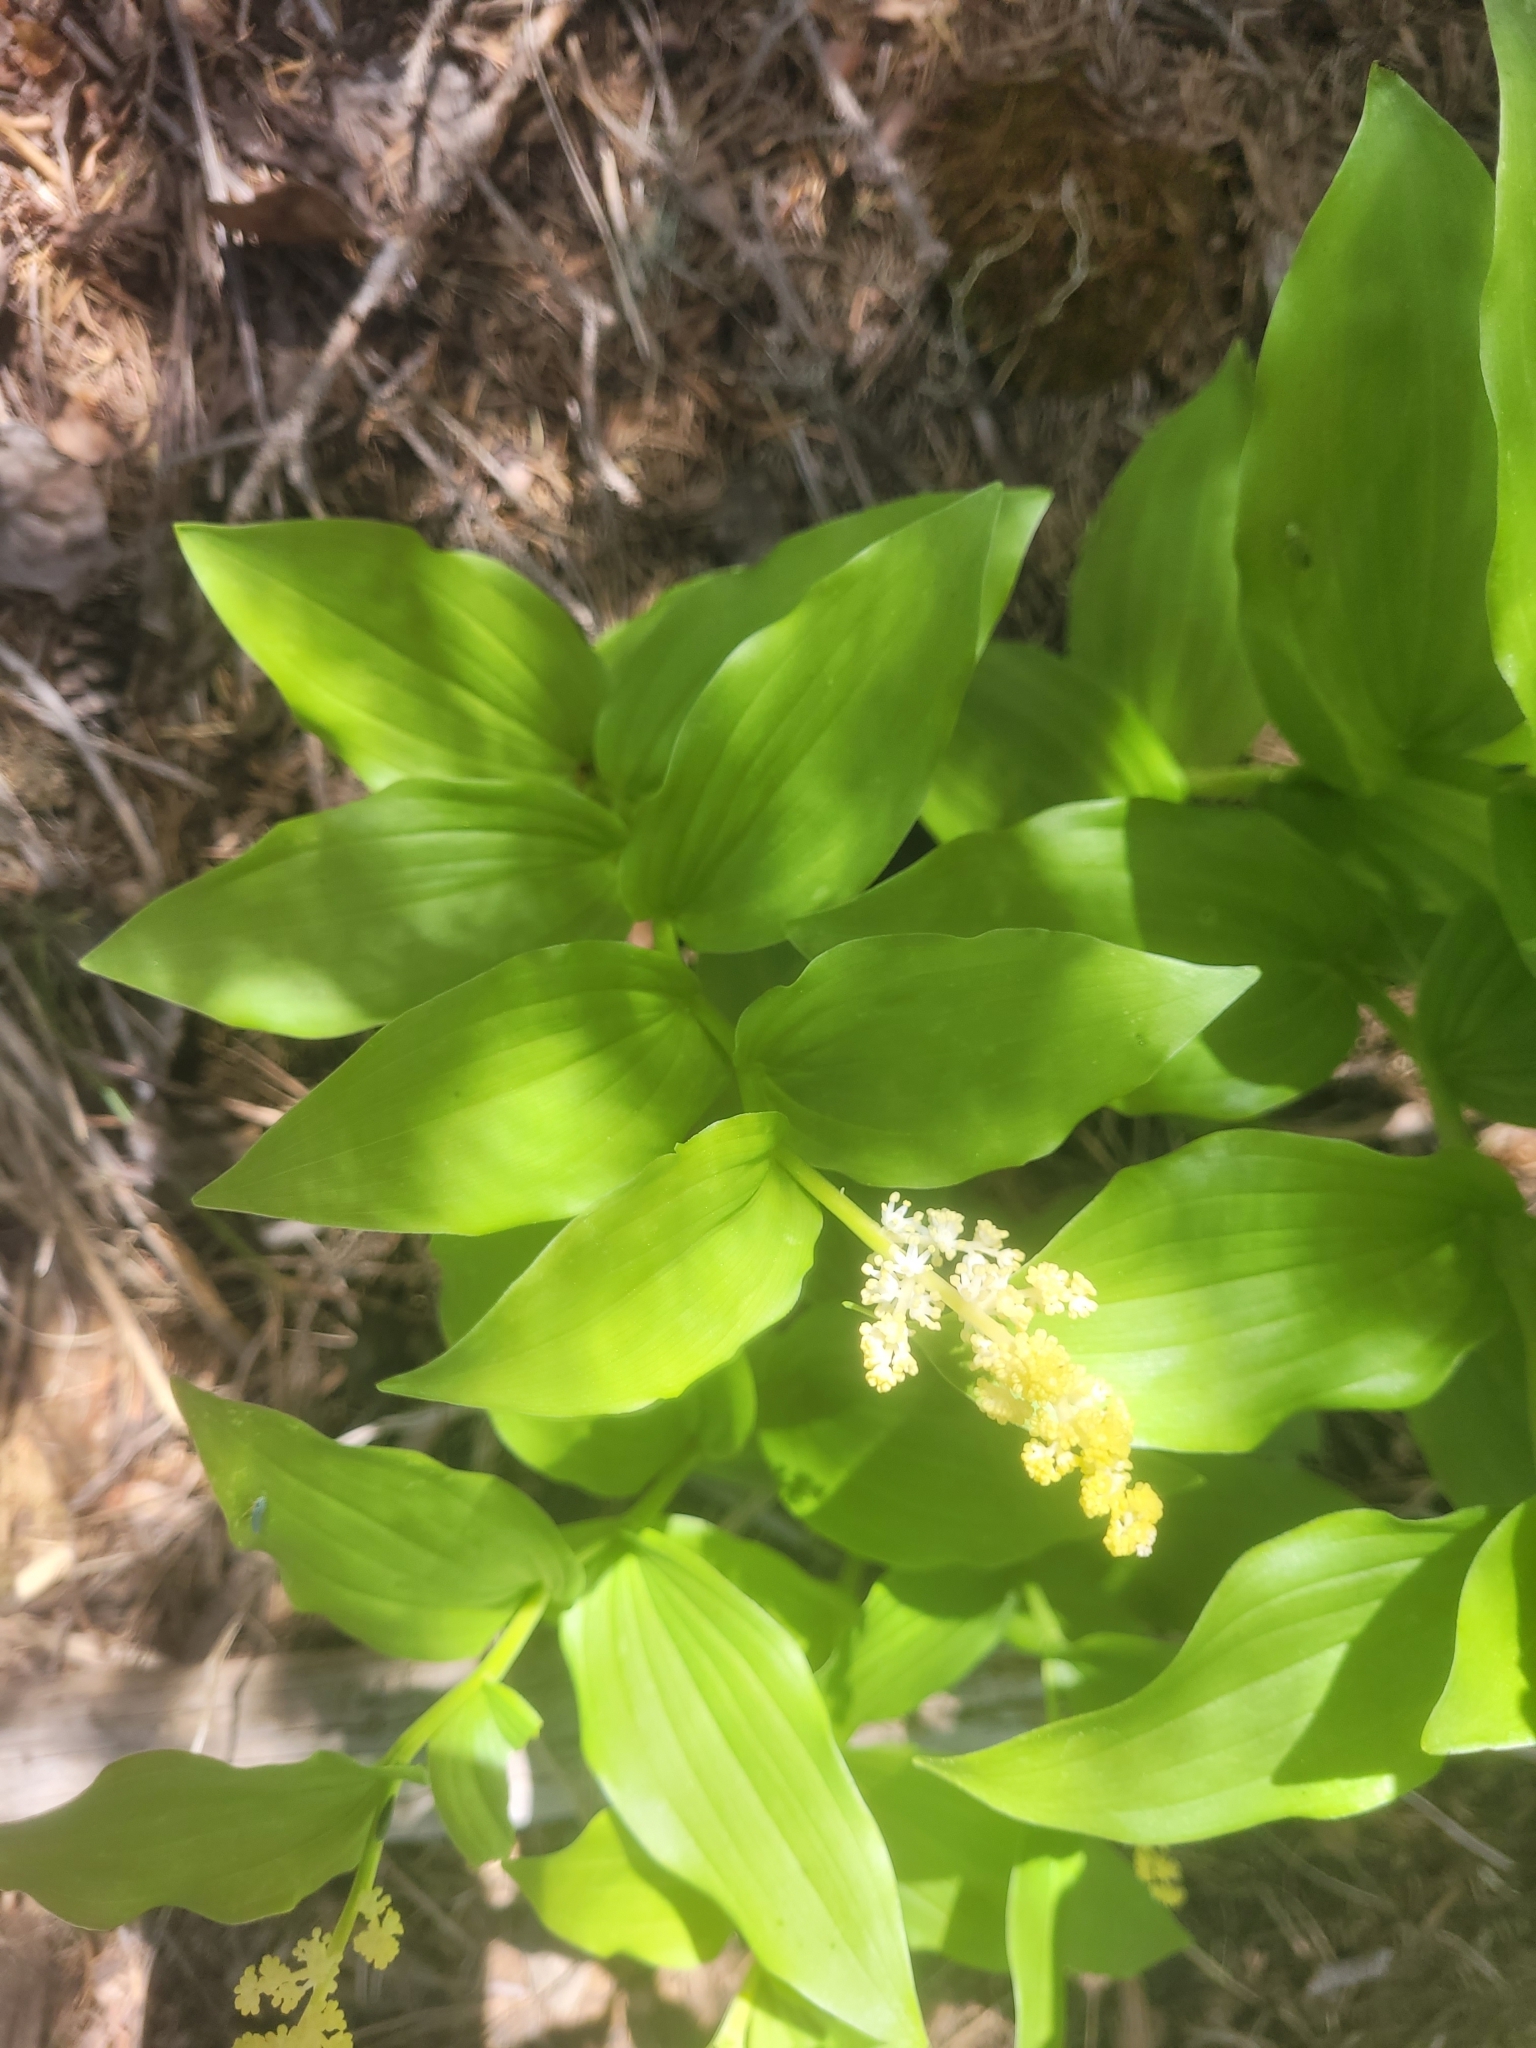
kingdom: Plantae
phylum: Tracheophyta
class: Liliopsida
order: Asparagales
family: Asparagaceae
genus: Maianthemum
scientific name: Maianthemum racemosum
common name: False spikenard
